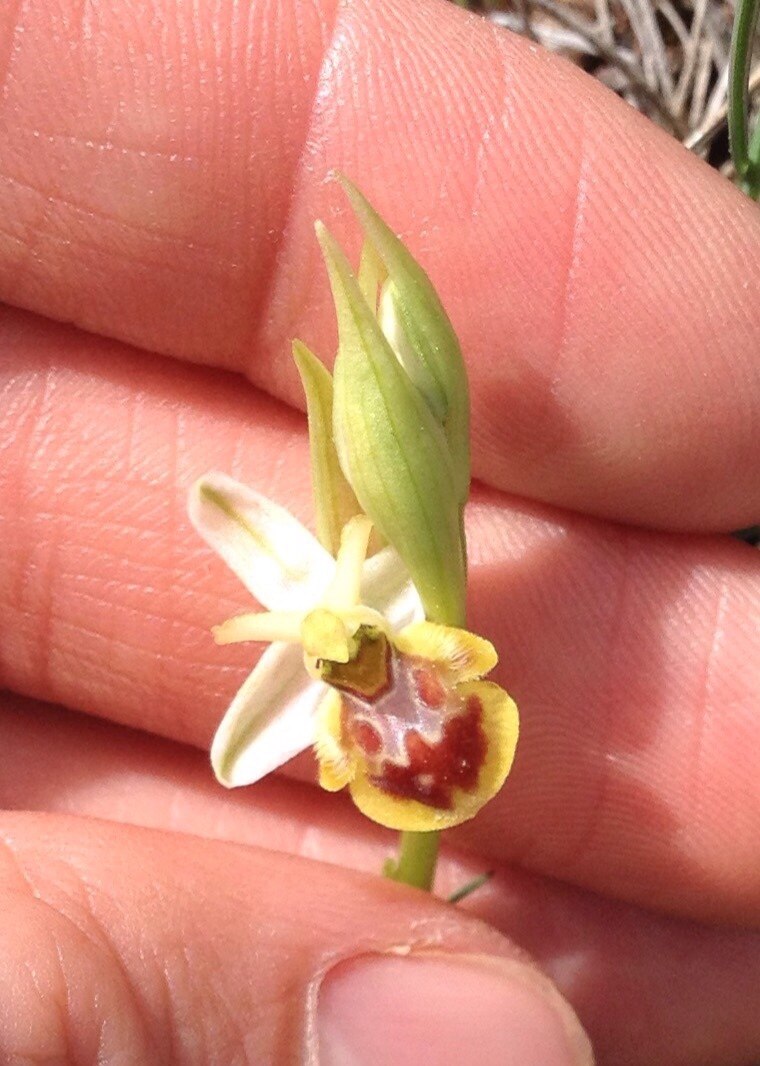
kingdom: Plantae
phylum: Tracheophyta
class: Liliopsida
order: Asparagales
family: Orchidaceae
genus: Ophrys
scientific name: Ophrys sphegodes
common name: Early spider-orchid
